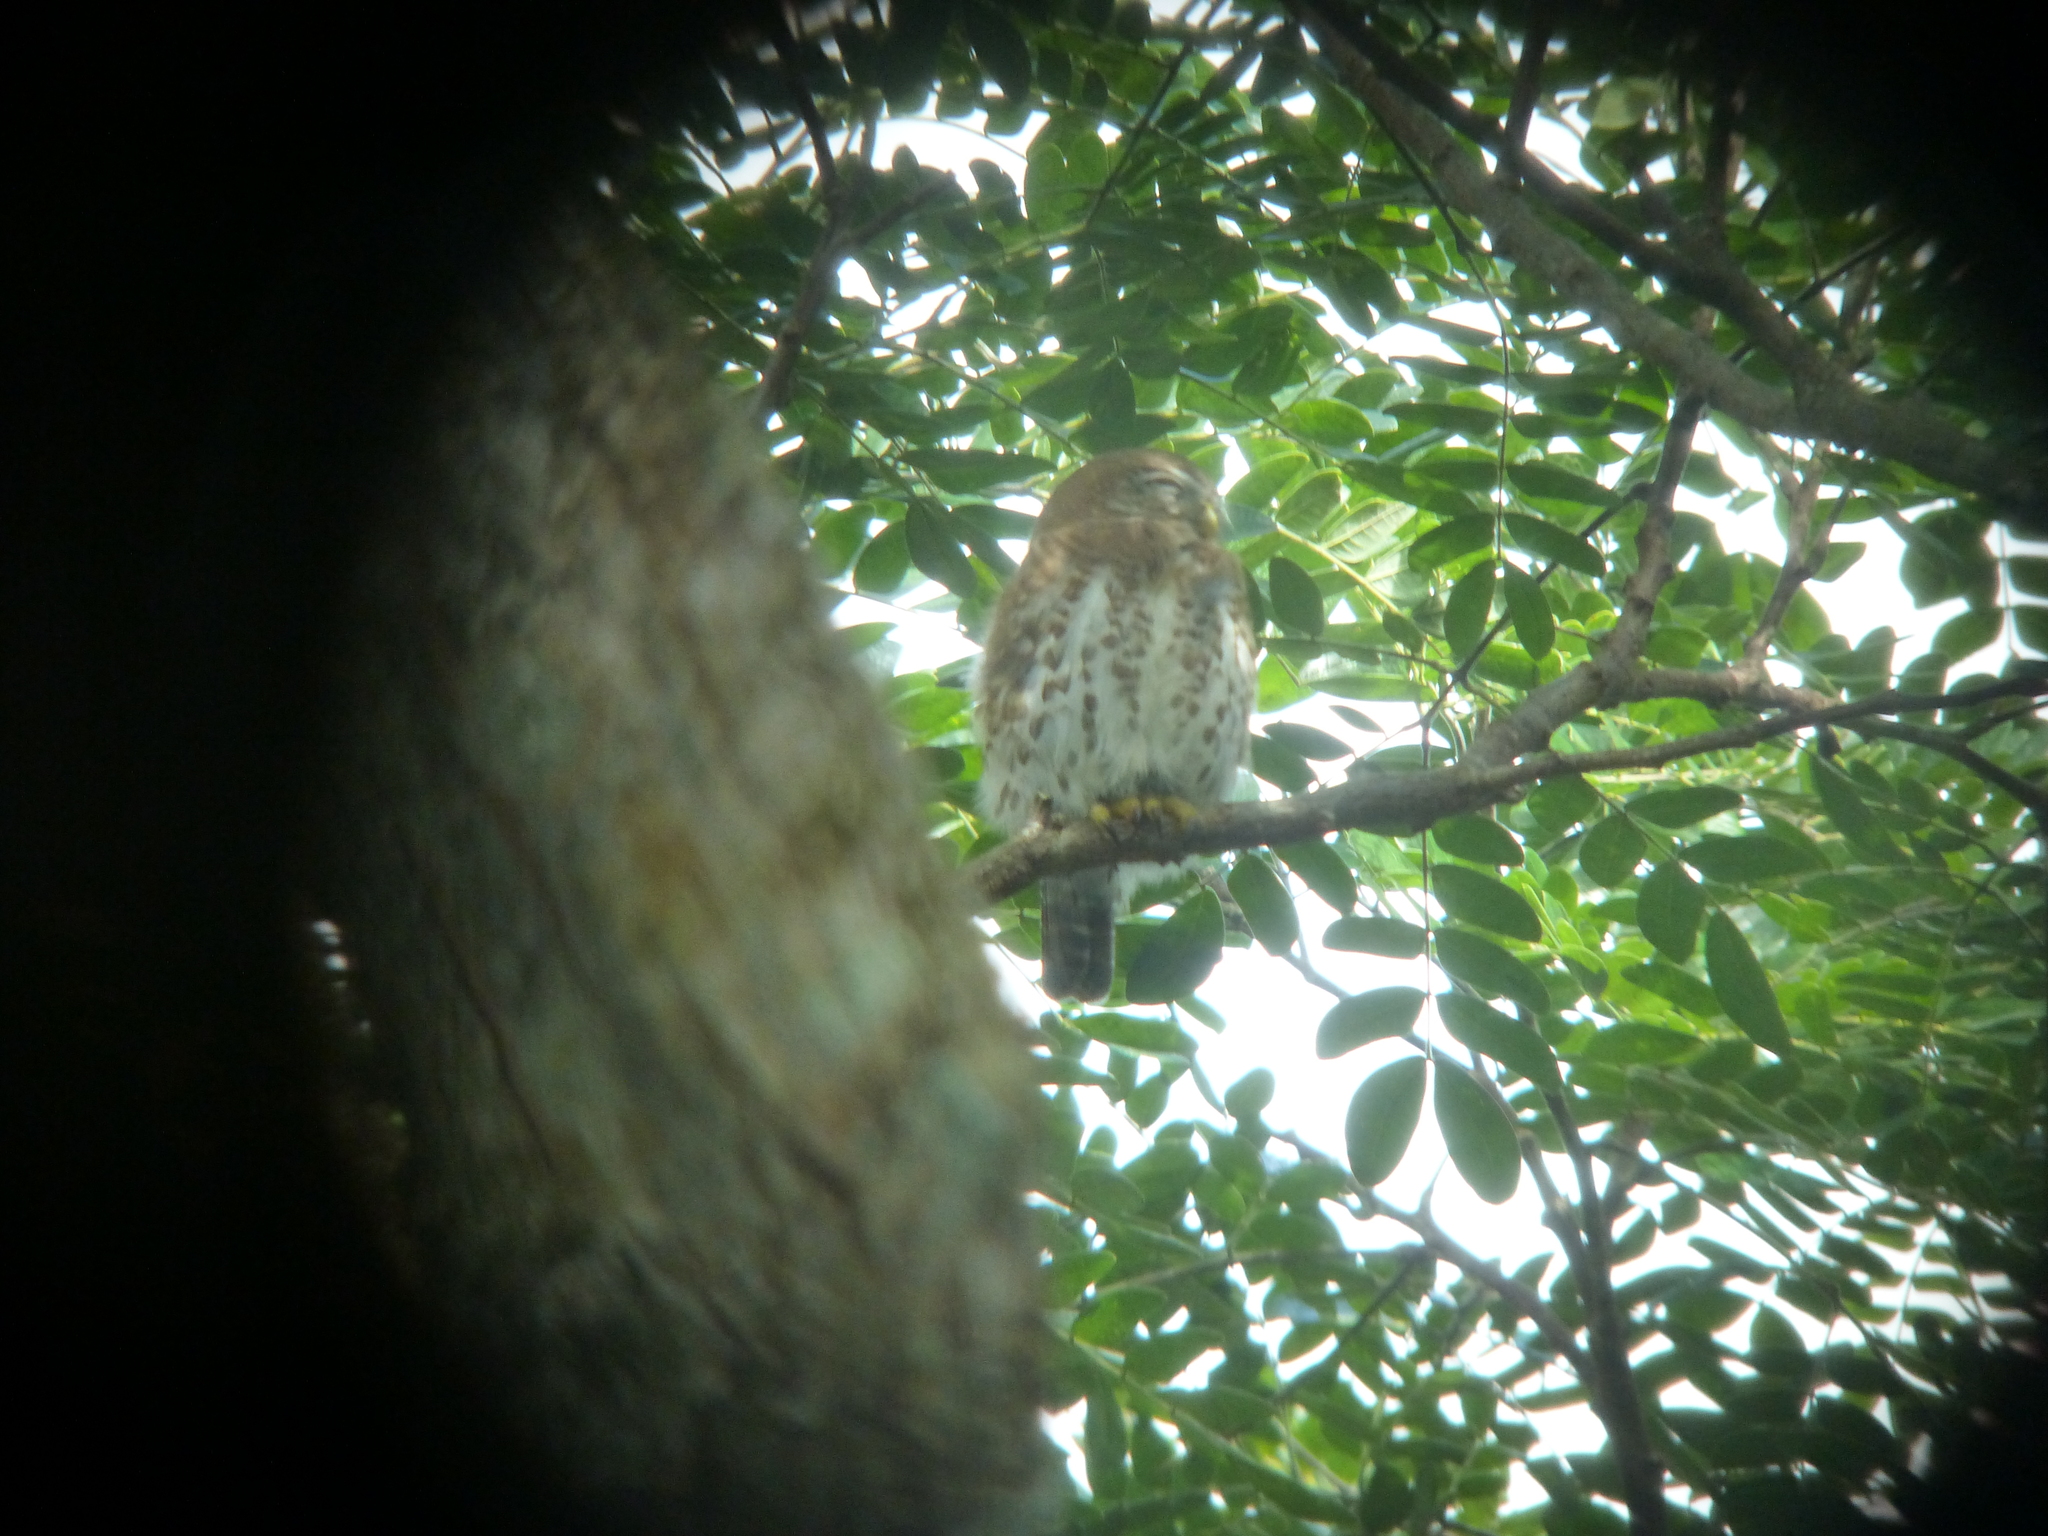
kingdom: Animalia
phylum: Chordata
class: Aves
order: Strigiformes
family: Strigidae
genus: Glaucidium
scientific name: Glaucidium siju
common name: Cuban pygmy-owl
